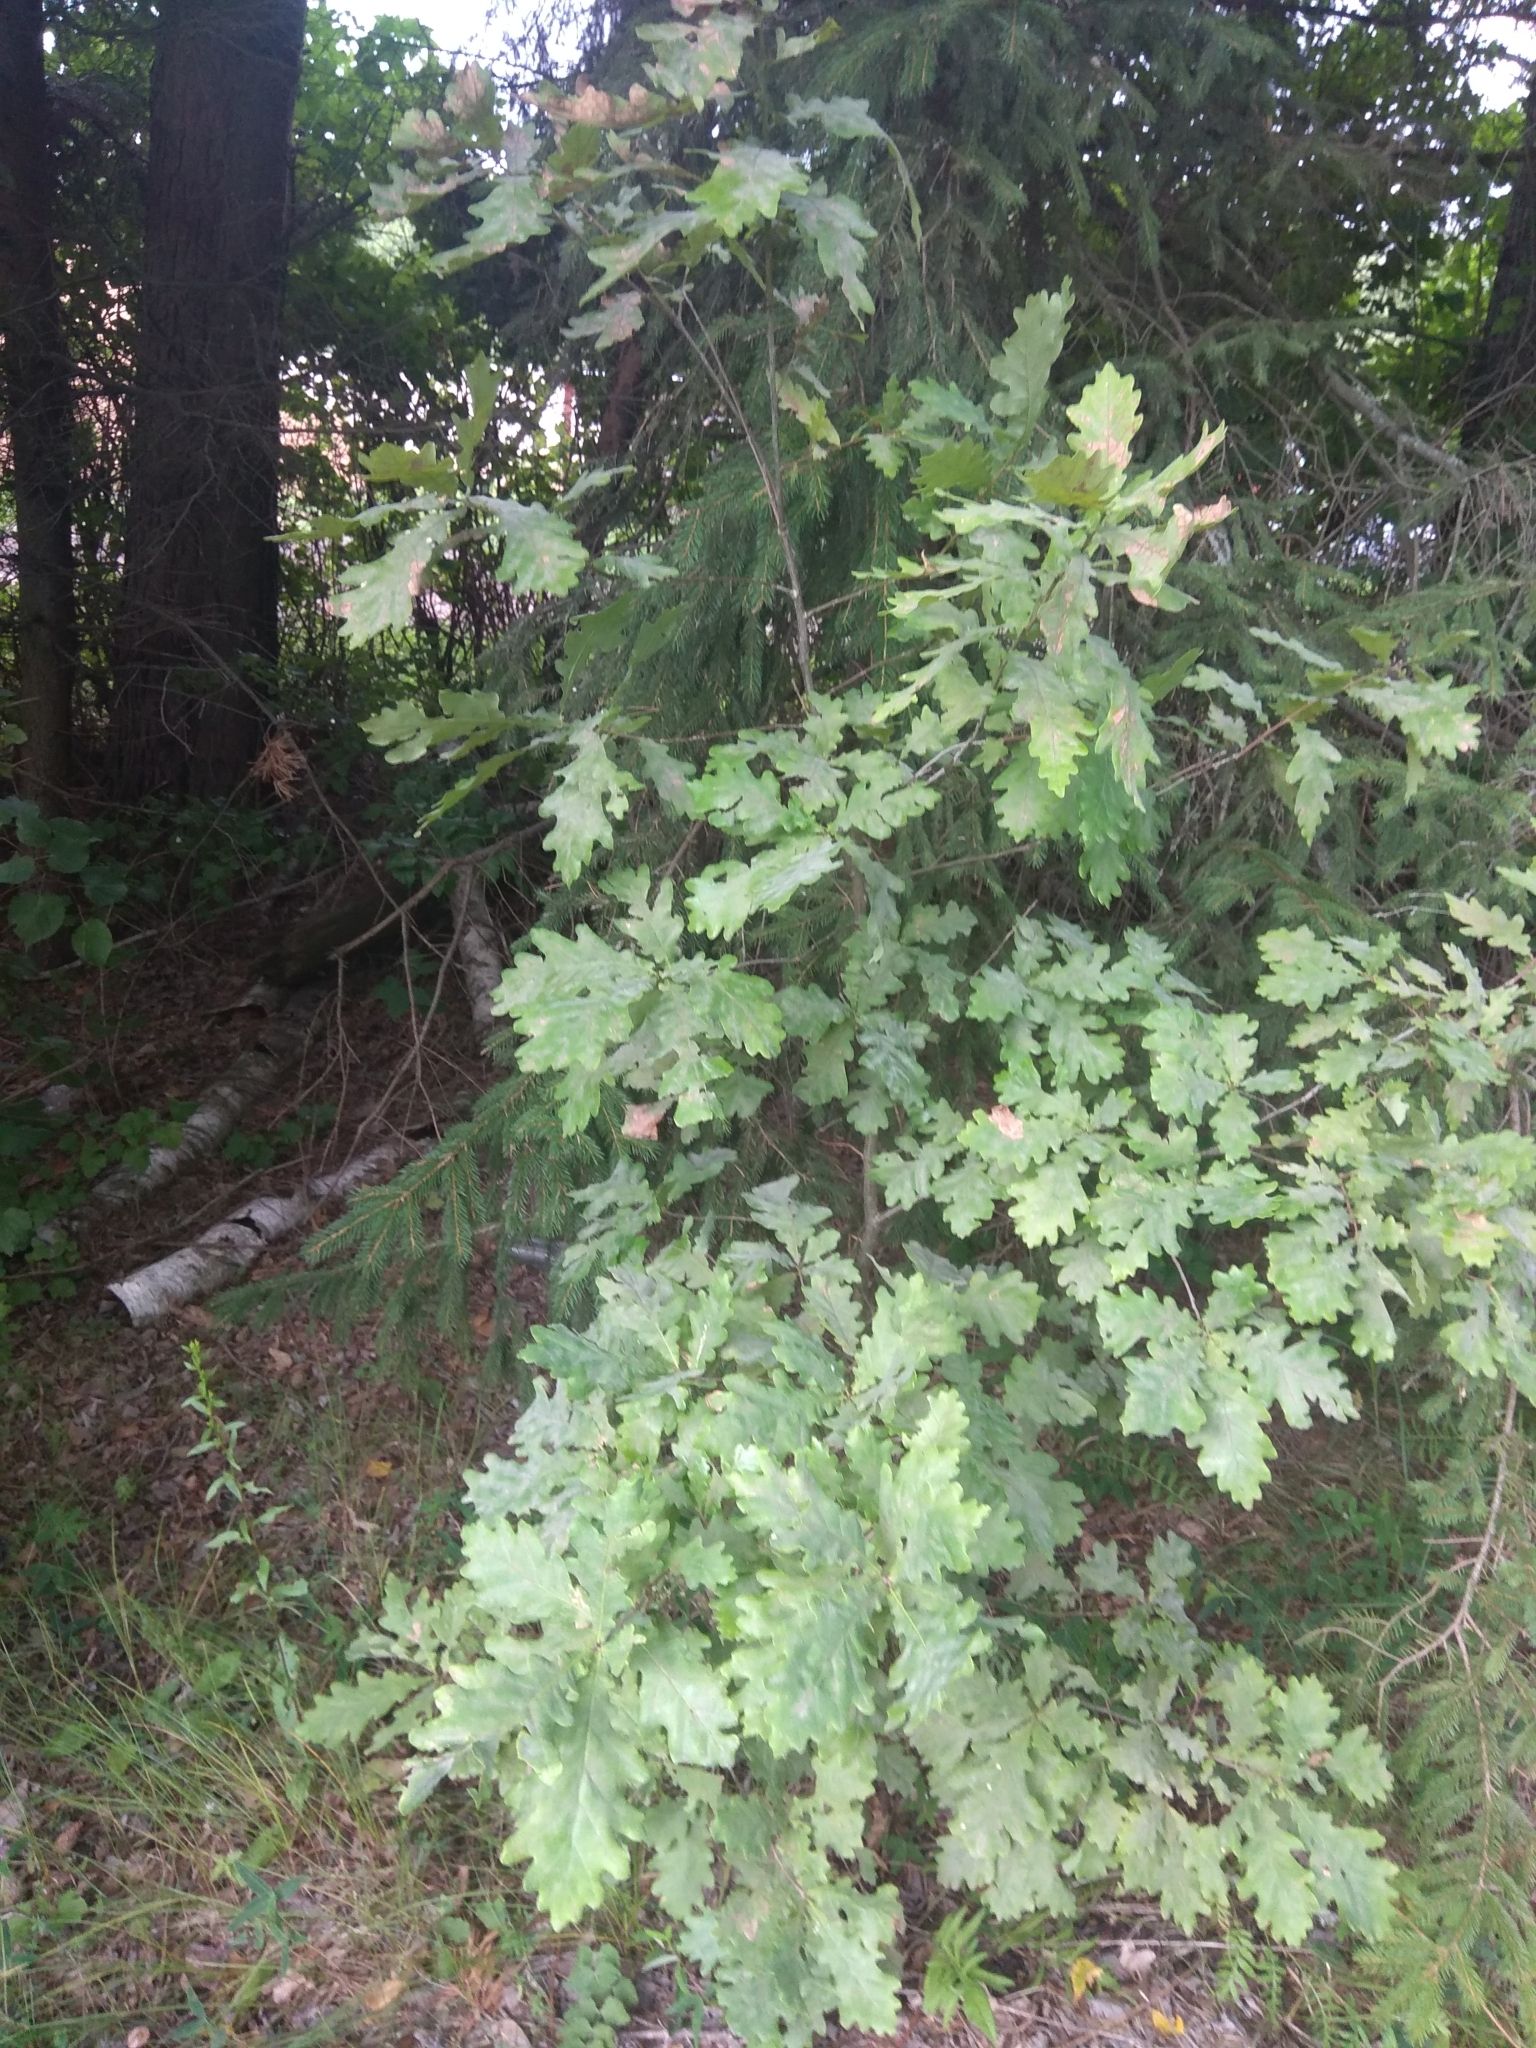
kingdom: Plantae
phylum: Tracheophyta
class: Magnoliopsida
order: Fagales
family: Fagaceae
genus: Quercus
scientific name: Quercus robur
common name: Pedunculate oak
